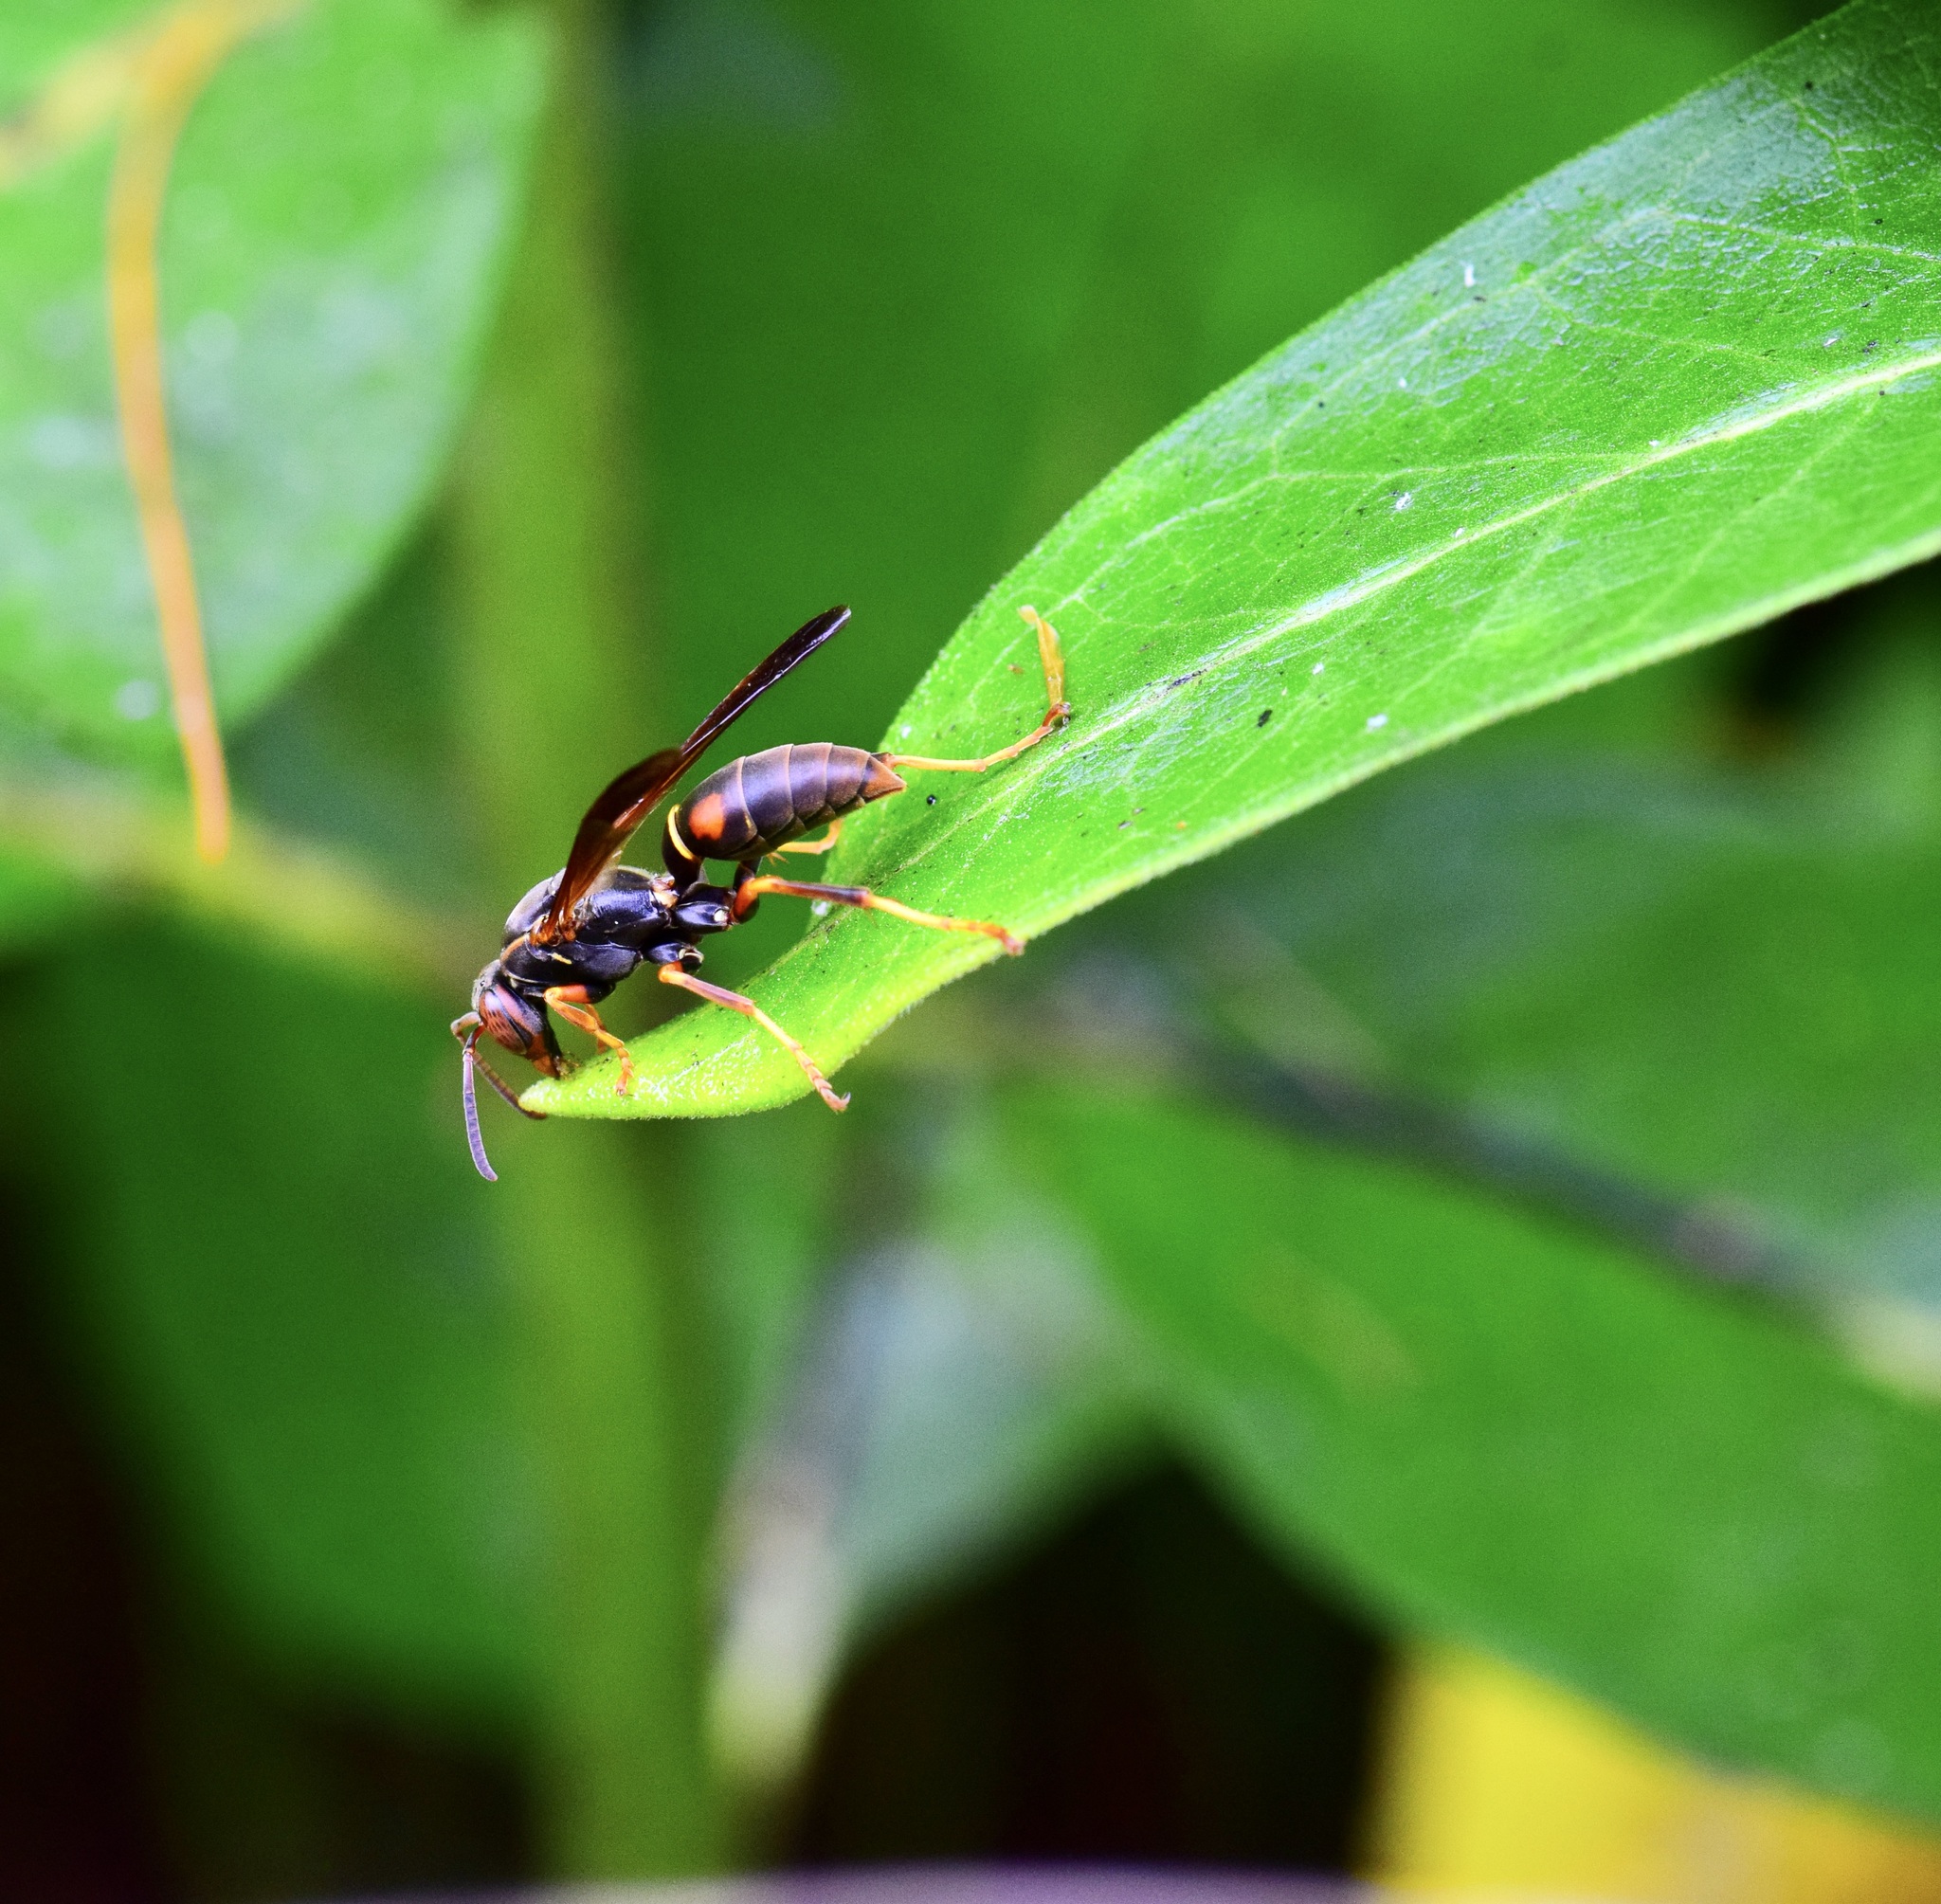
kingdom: Animalia
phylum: Arthropoda
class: Insecta
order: Hymenoptera
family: Eumenidae
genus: Polistes
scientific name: Polistes fuscatus
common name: Dark paper wasp
